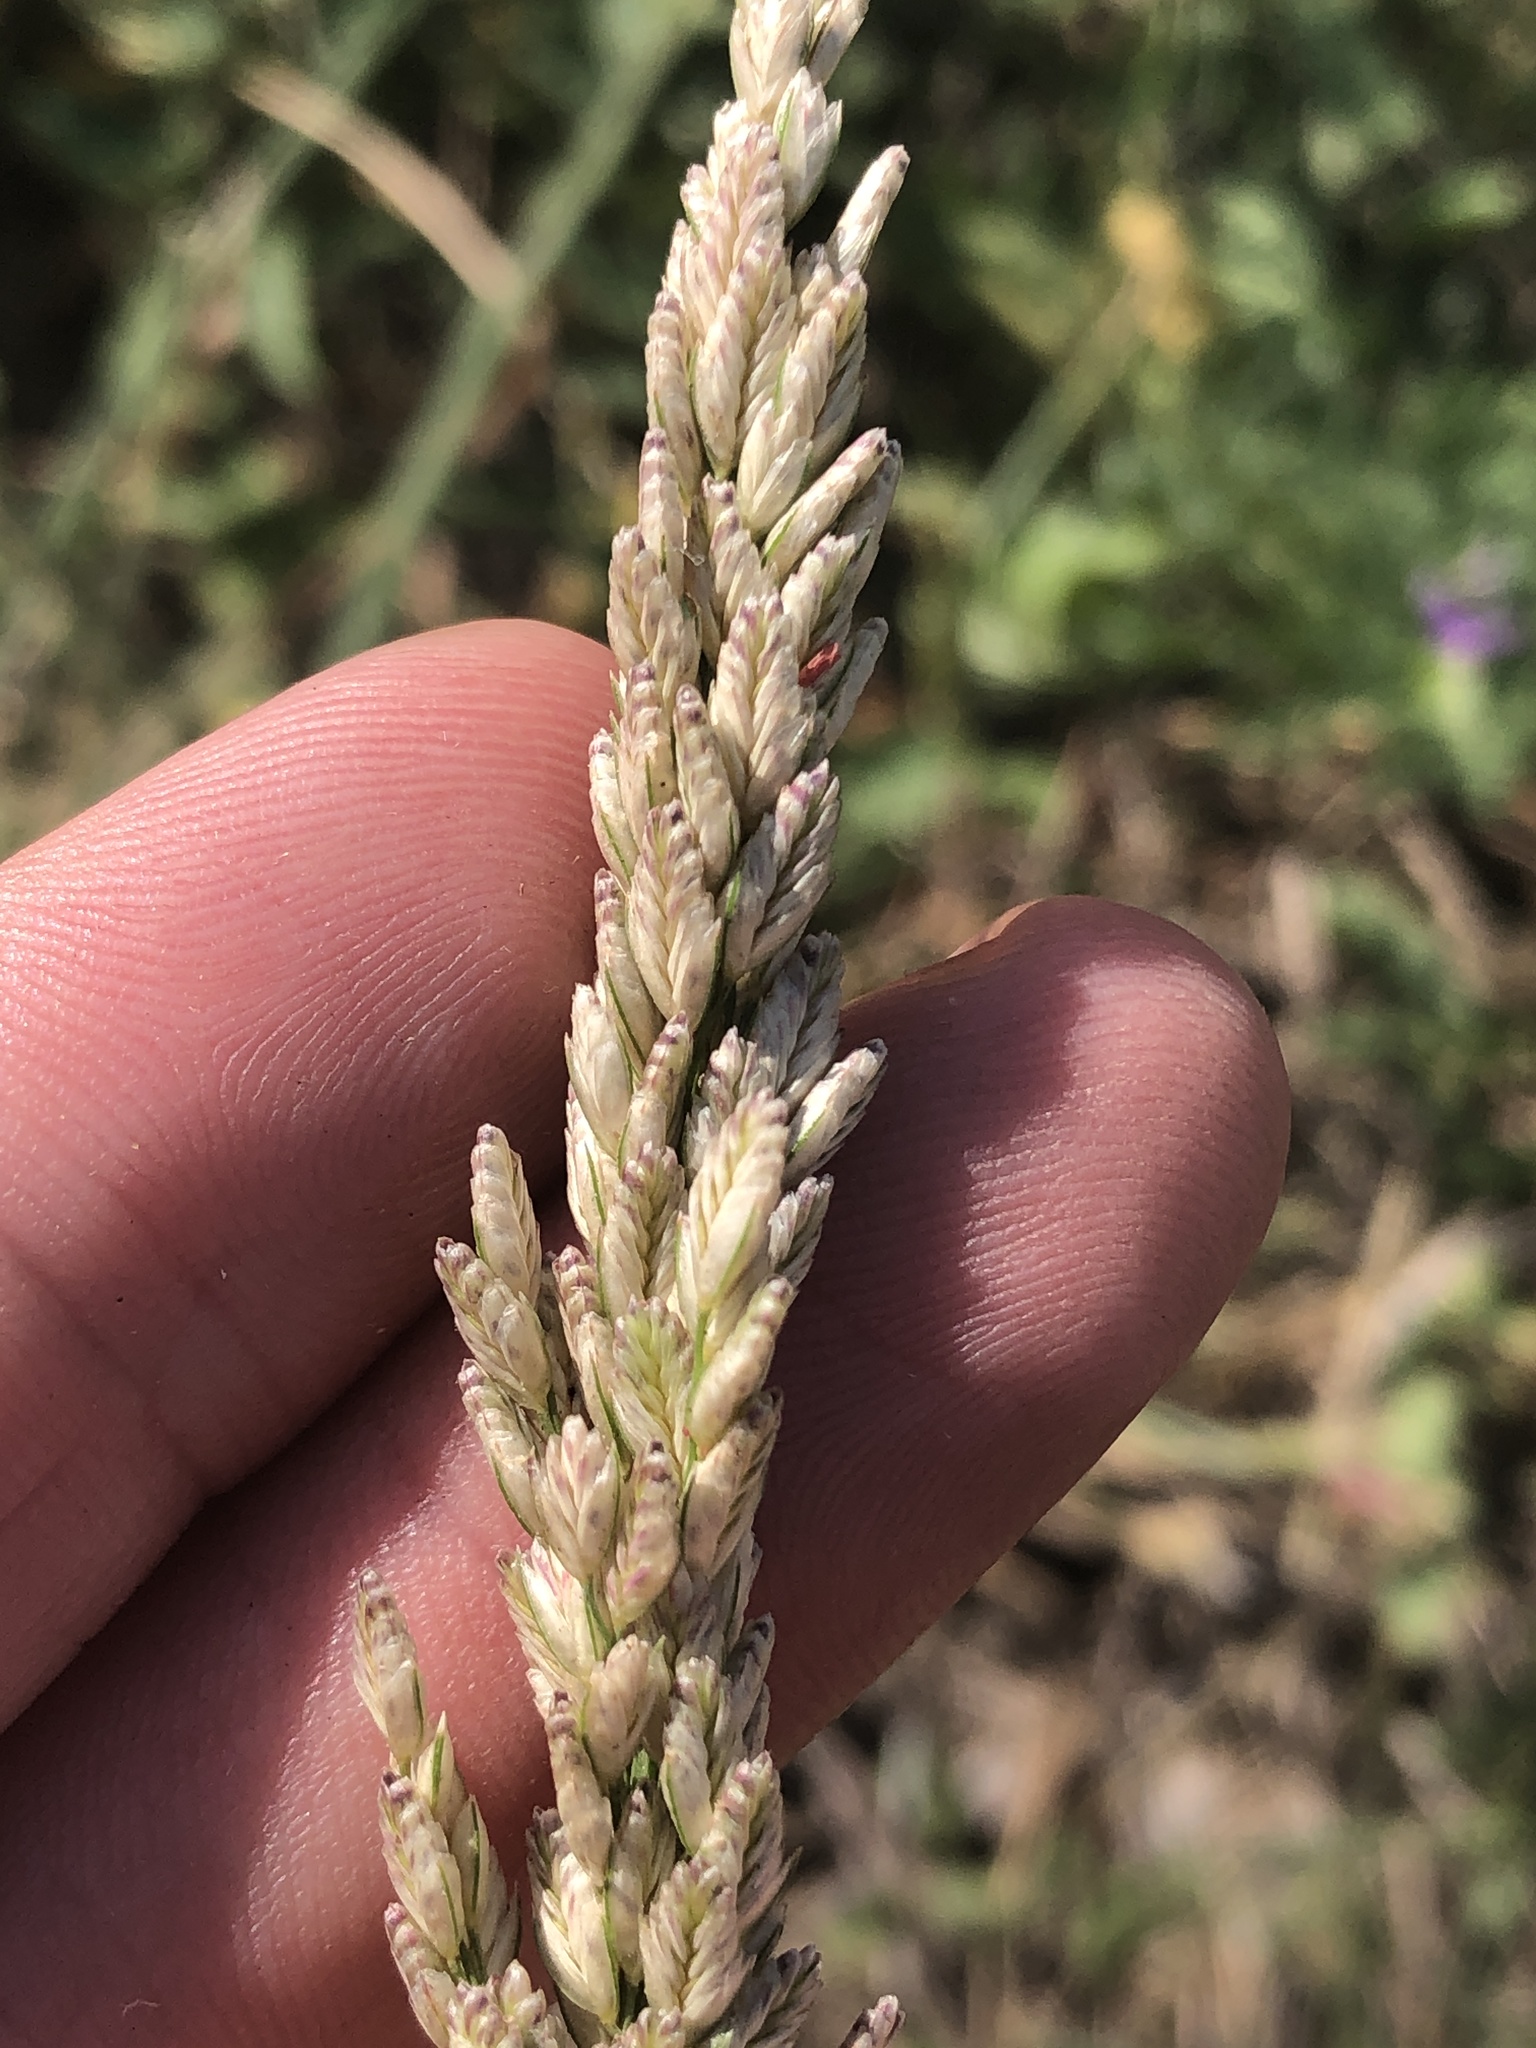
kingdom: Plantae
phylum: Tracheophyta
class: Liliopsida
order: Poales
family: Poaceae
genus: Tridens
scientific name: Tridens albescens
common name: White tridens
